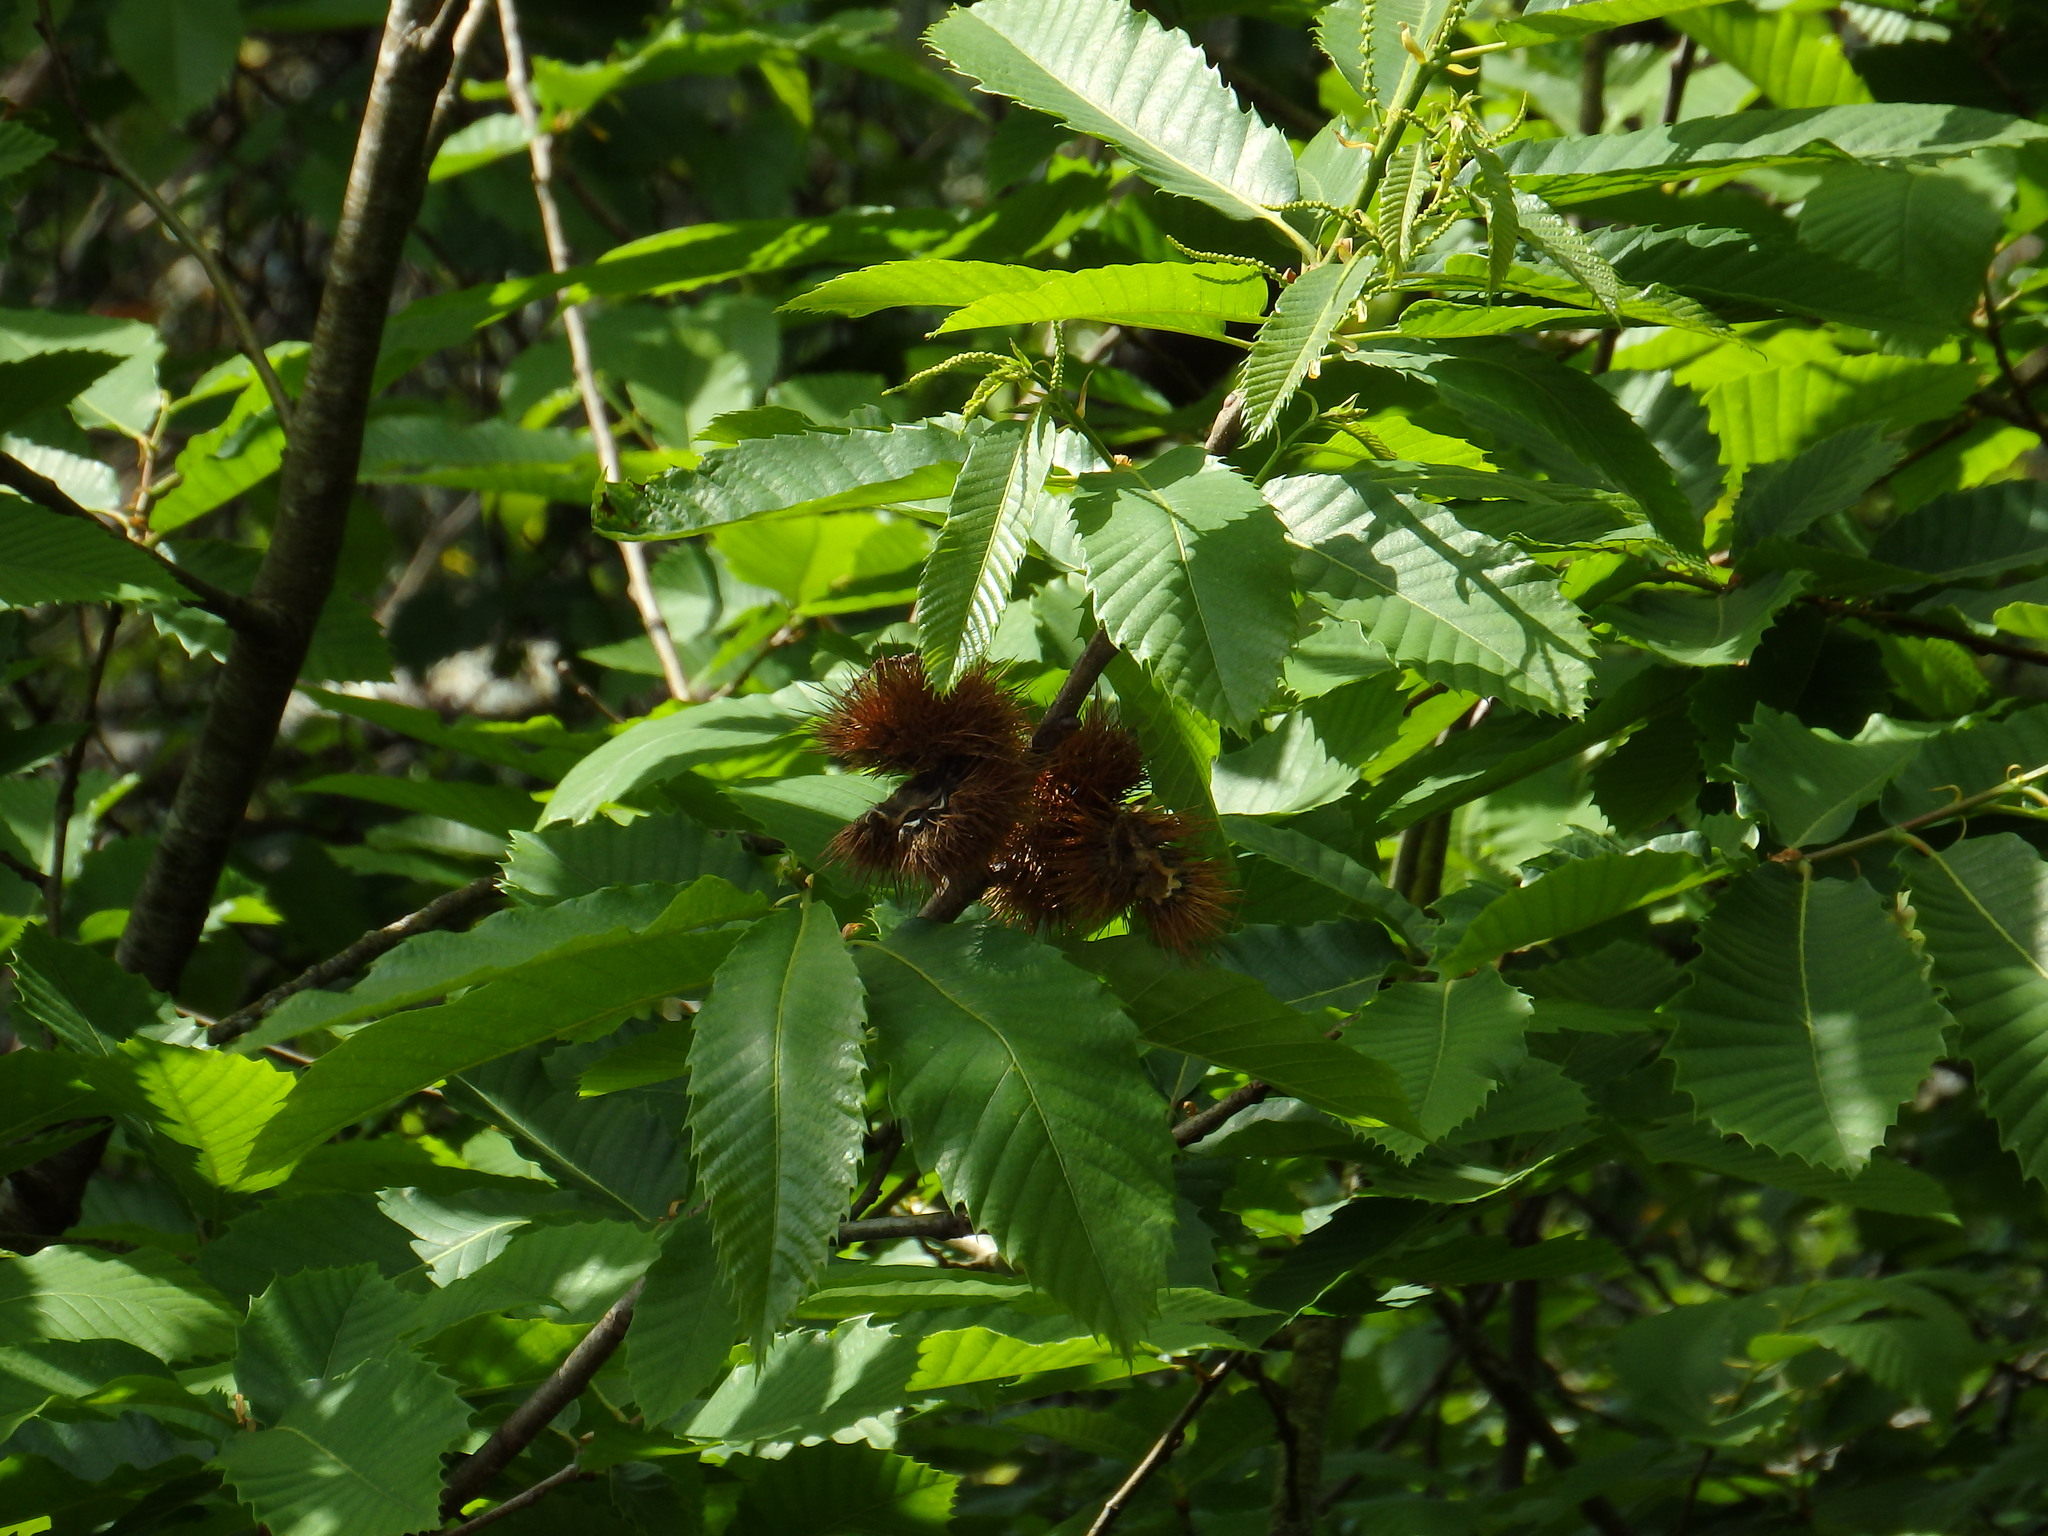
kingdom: Plantae
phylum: Tracheophyta
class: Magnoliopsida
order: Fagales
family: Fagaceae
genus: Castanea
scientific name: Castanea sativa
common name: Sweet chestnut
